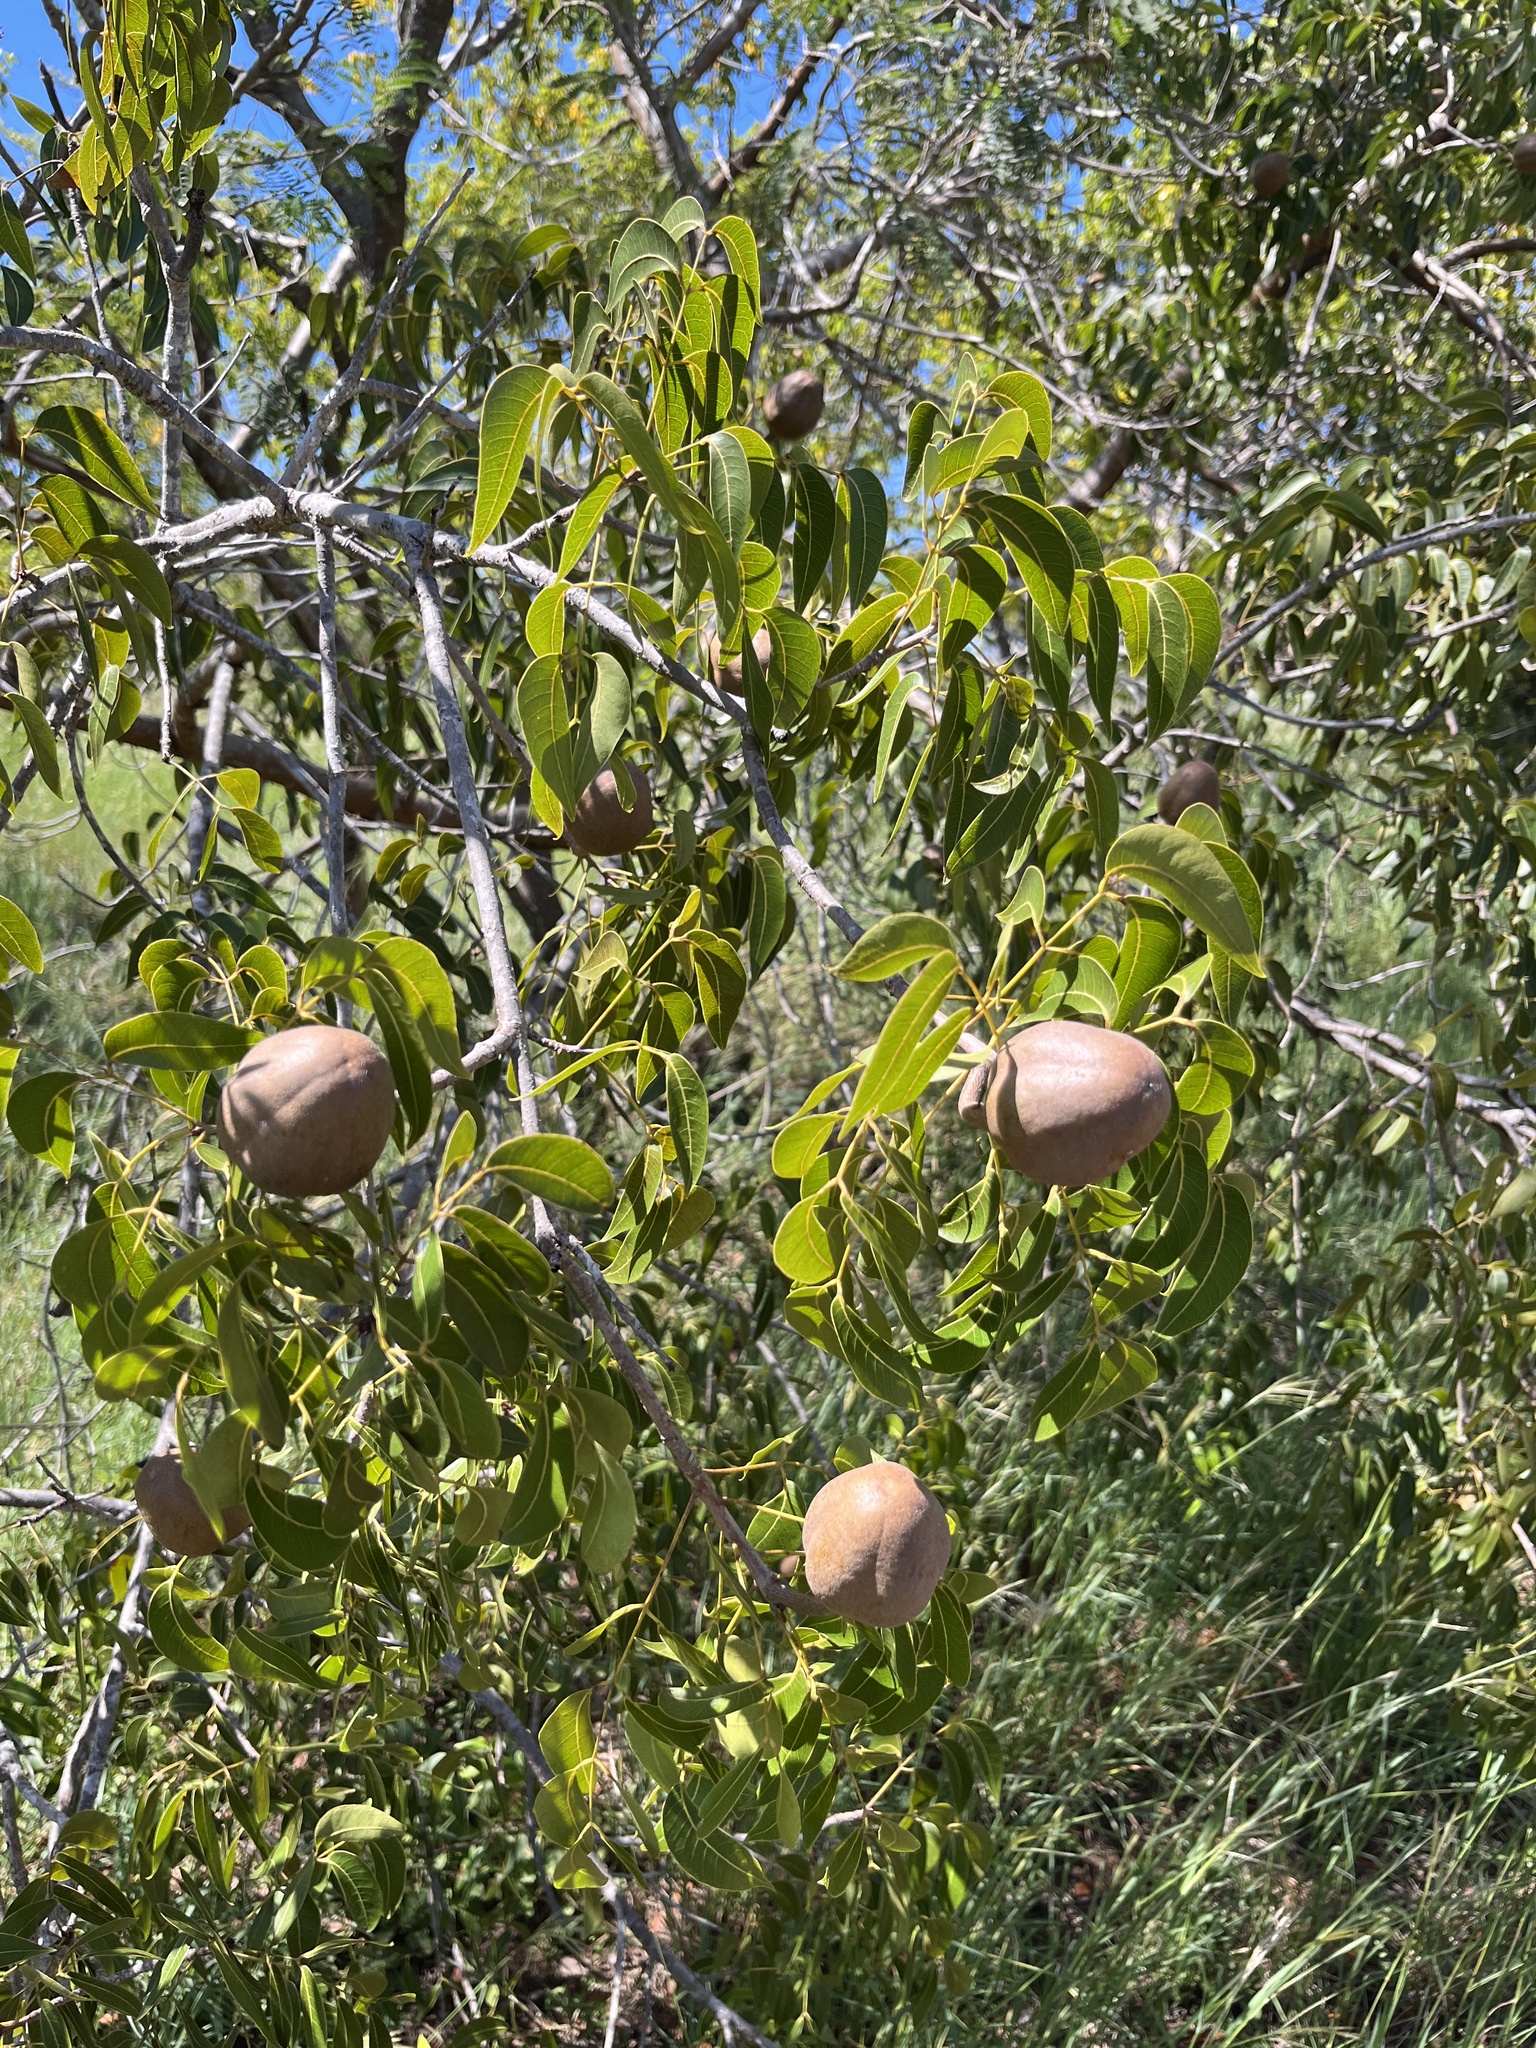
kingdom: Plantae
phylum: Tracheophyta
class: Magnoliopsida
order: Sapindales
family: Meliaceae
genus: Swietenia
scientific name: Swietenia mahagoni
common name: West indian mahogany
